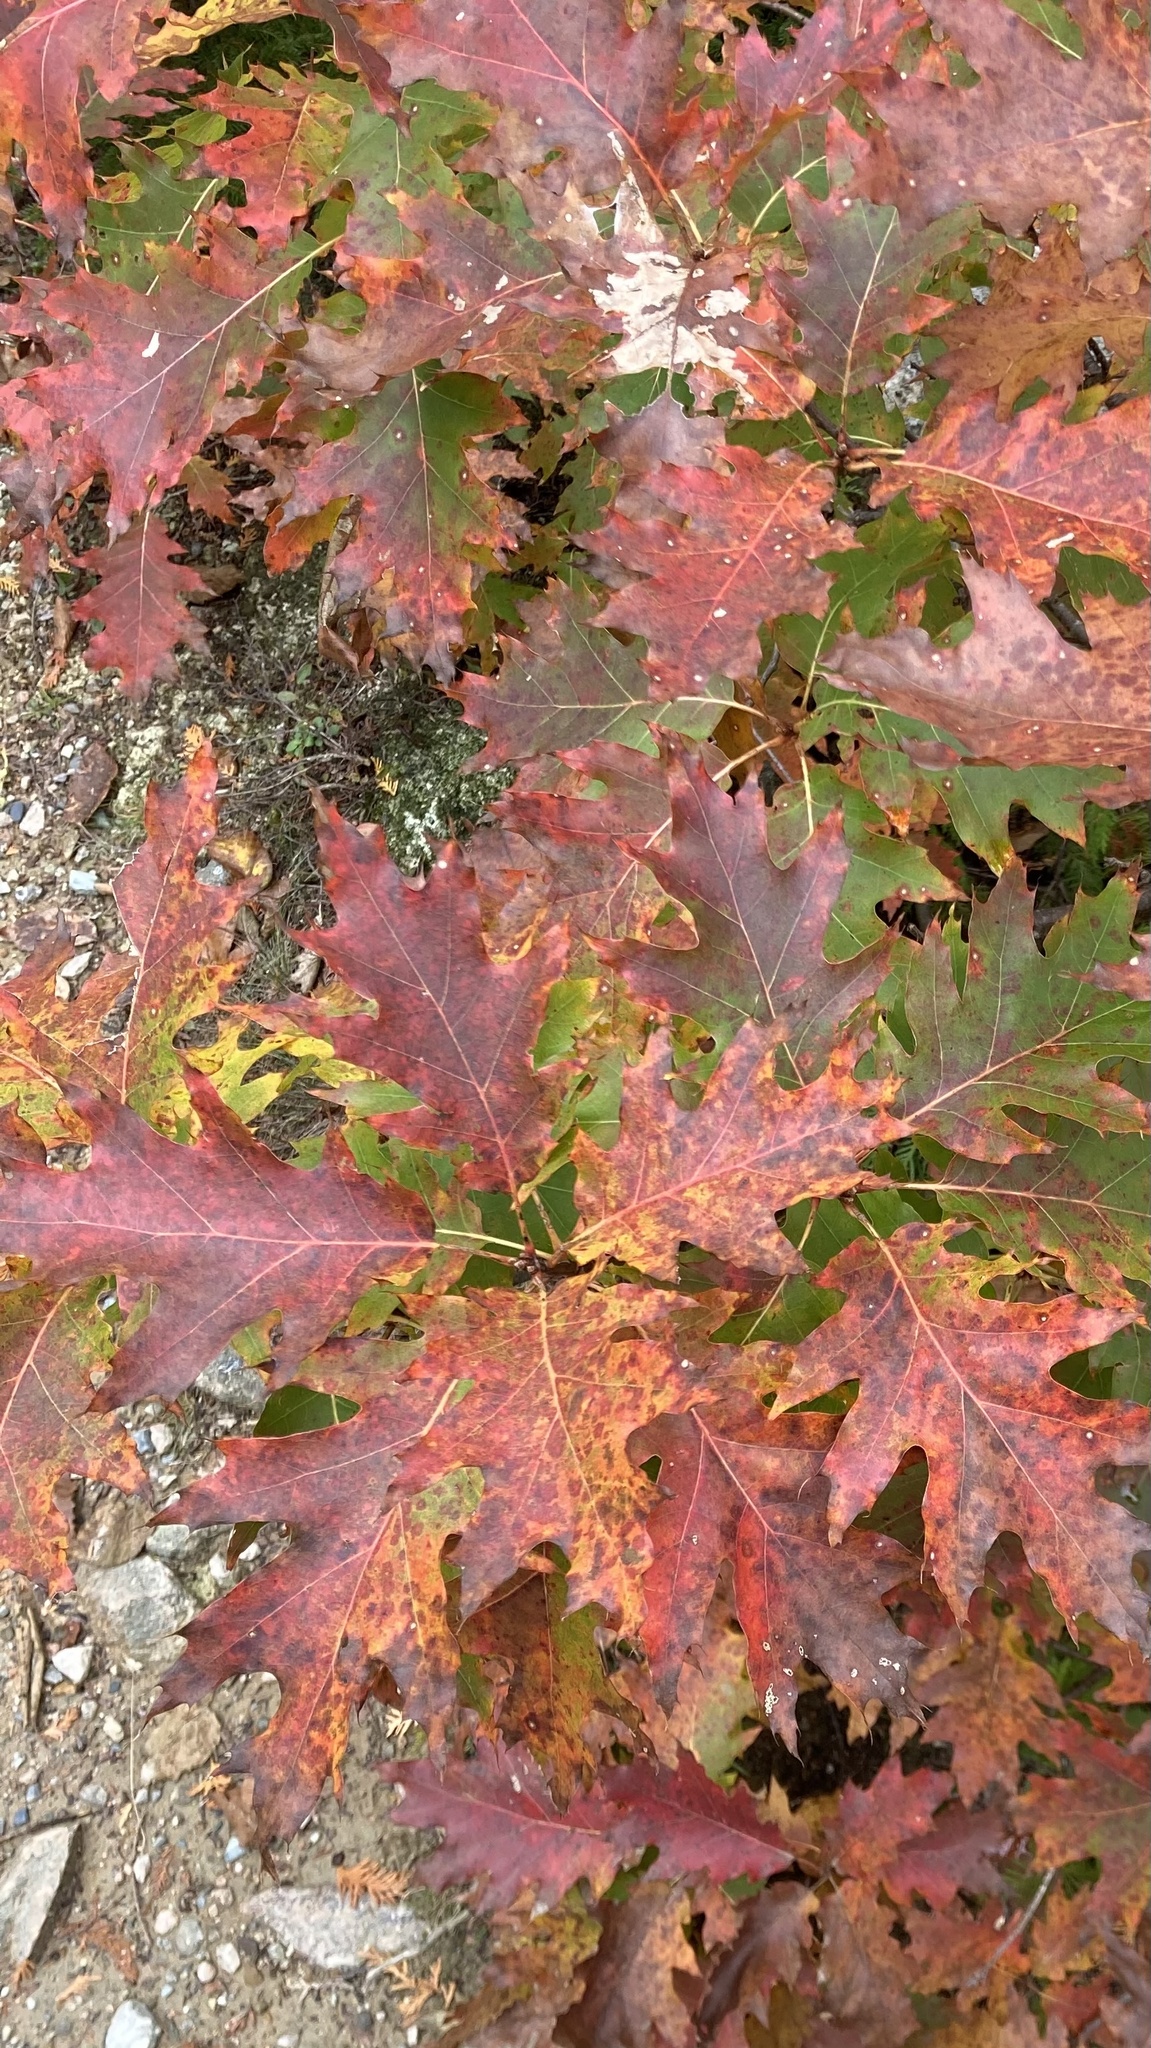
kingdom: Plantae
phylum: Tracheophyta
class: Magnoliopsida
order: Fagales
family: Fagaceae
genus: Quercus
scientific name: Quercus rubra
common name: Red oak
